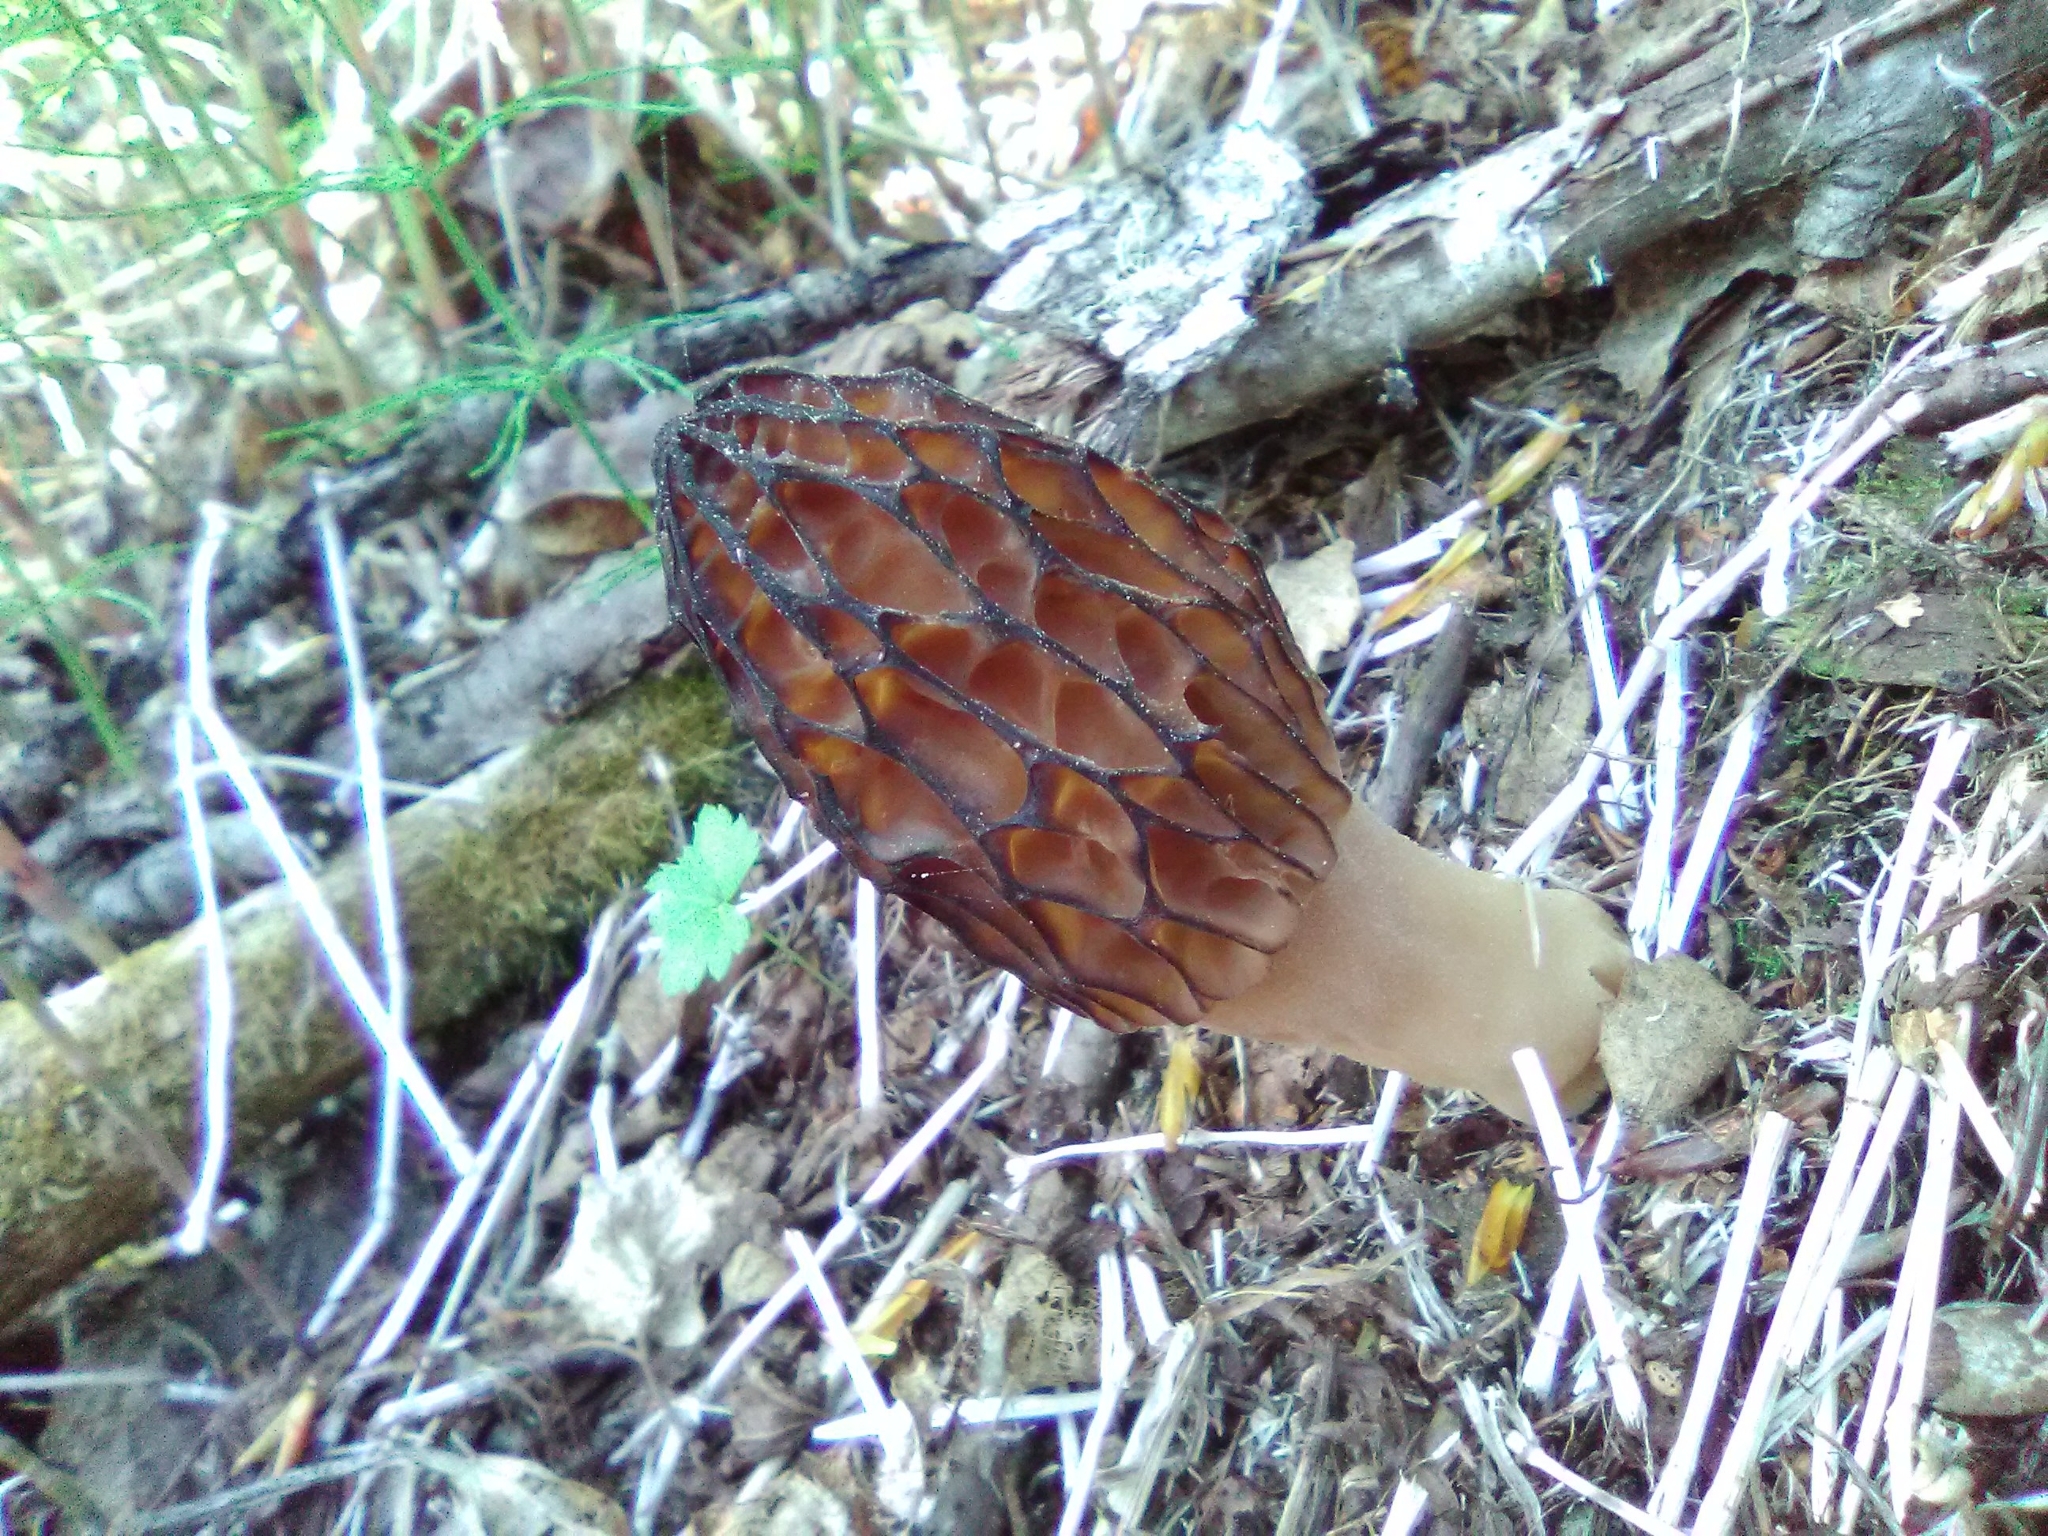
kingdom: Fungi
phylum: Ascomycota
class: Pezizomycetes
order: Pezizales
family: Morchellaceae
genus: Morchella
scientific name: Morchella pulchella
